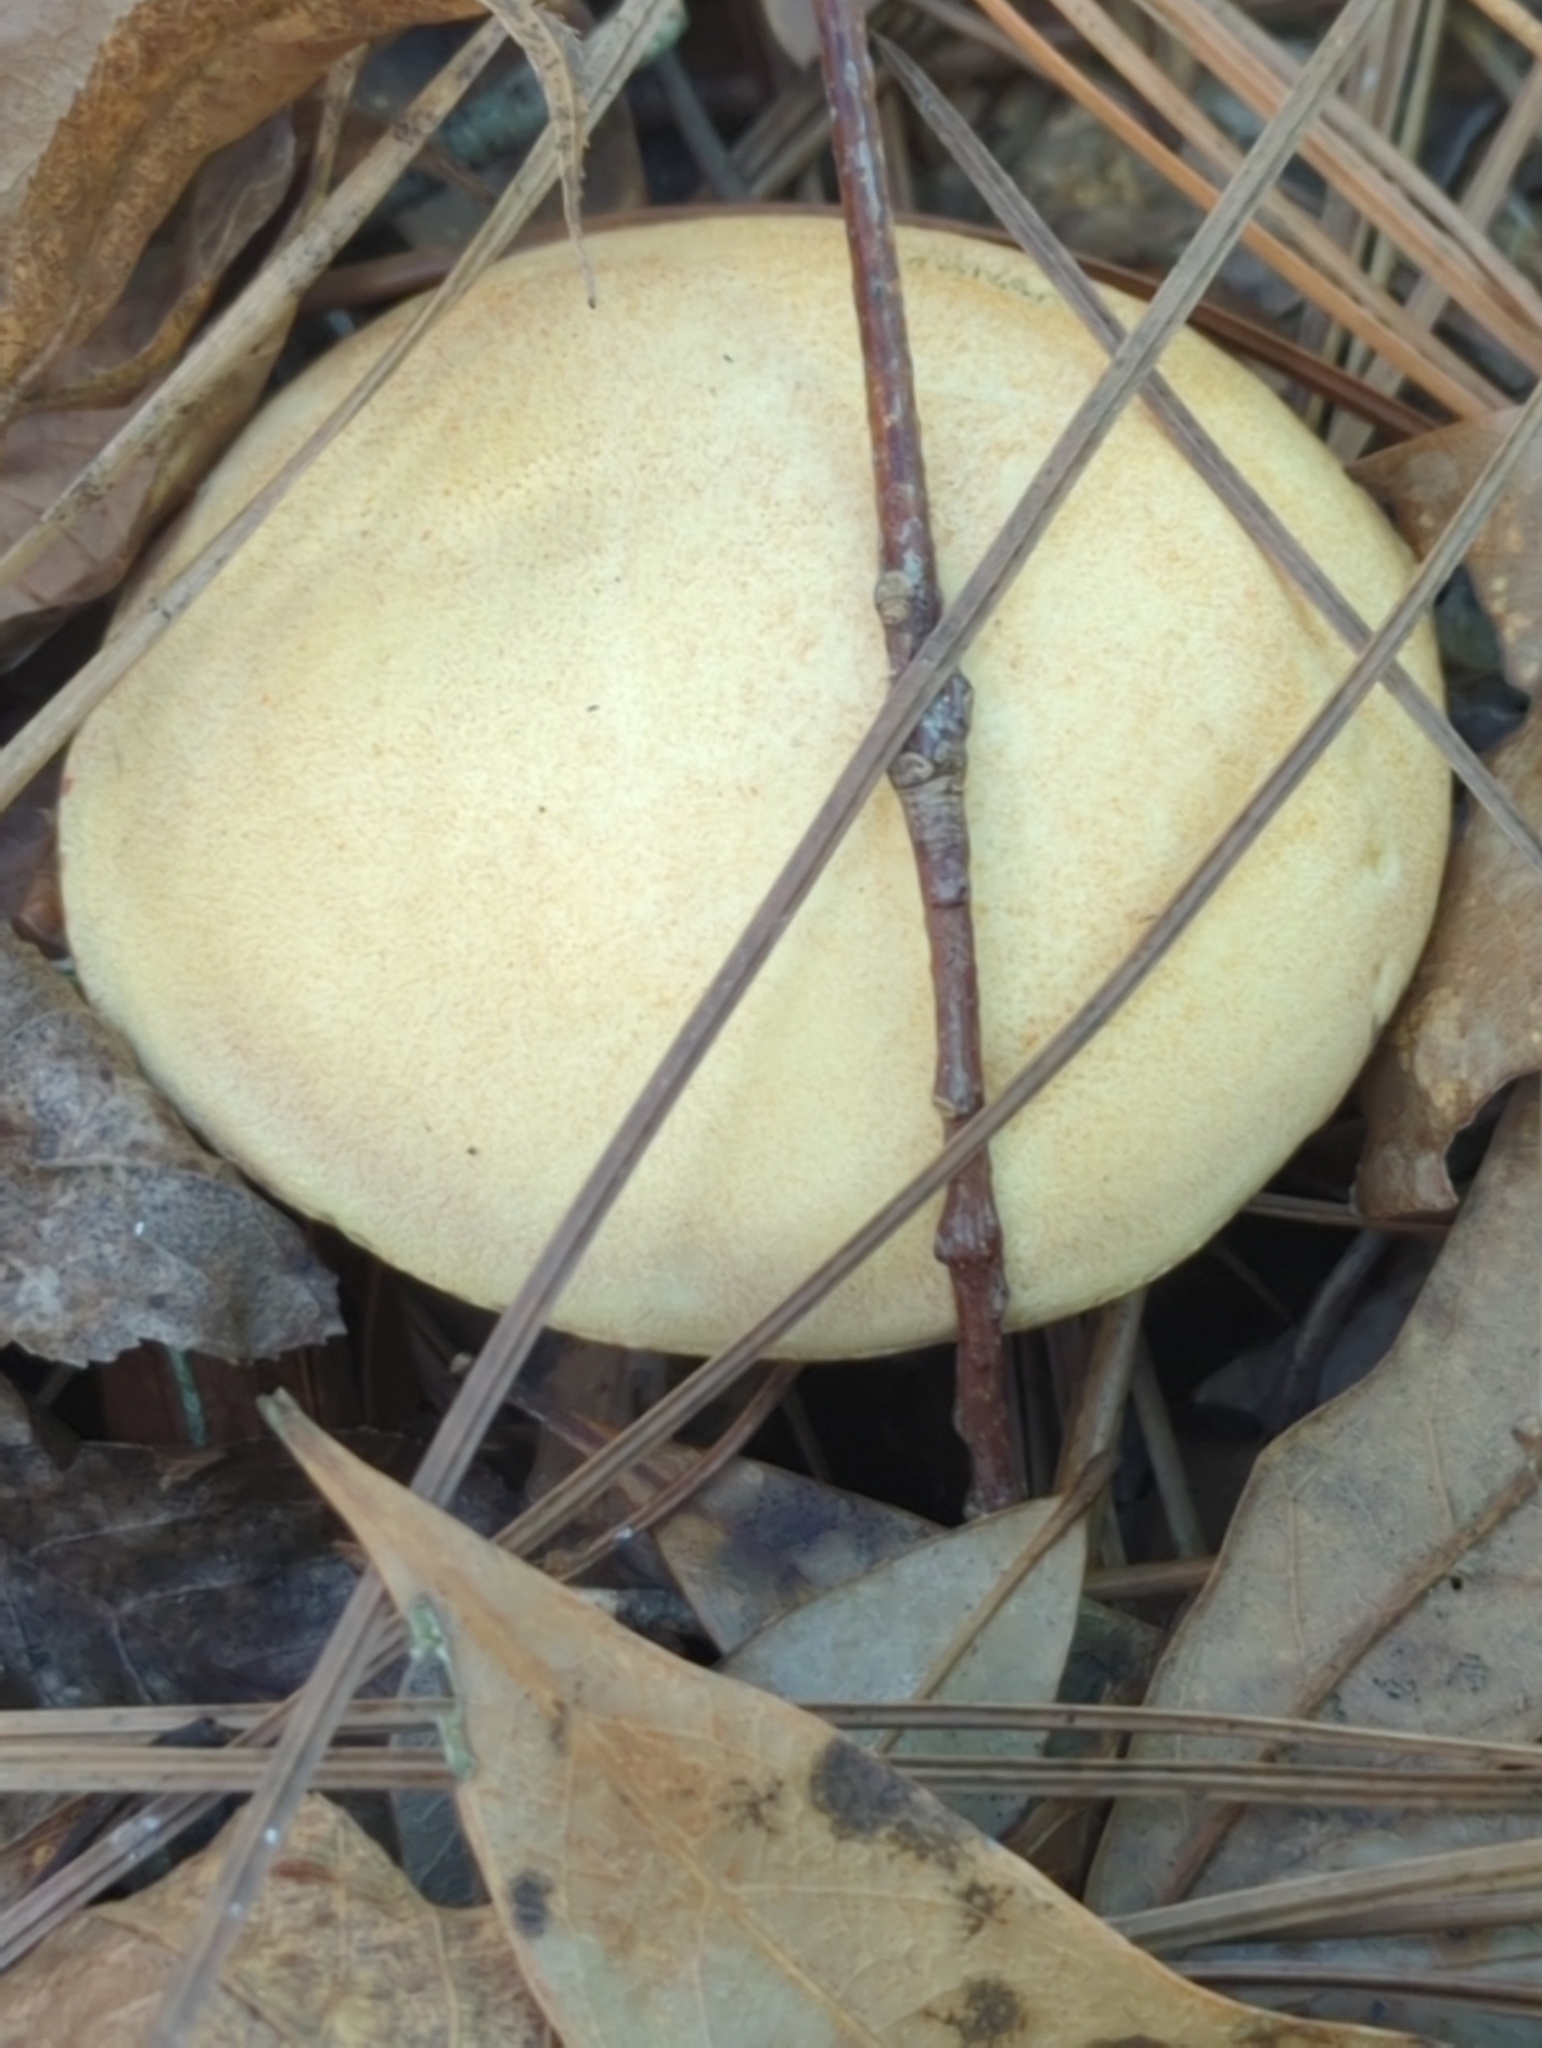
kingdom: Fungi
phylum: Basidiomycota
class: Agaricomycetes
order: Boletales
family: Suillaceae
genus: Suillus
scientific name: Suillus hirtellus
